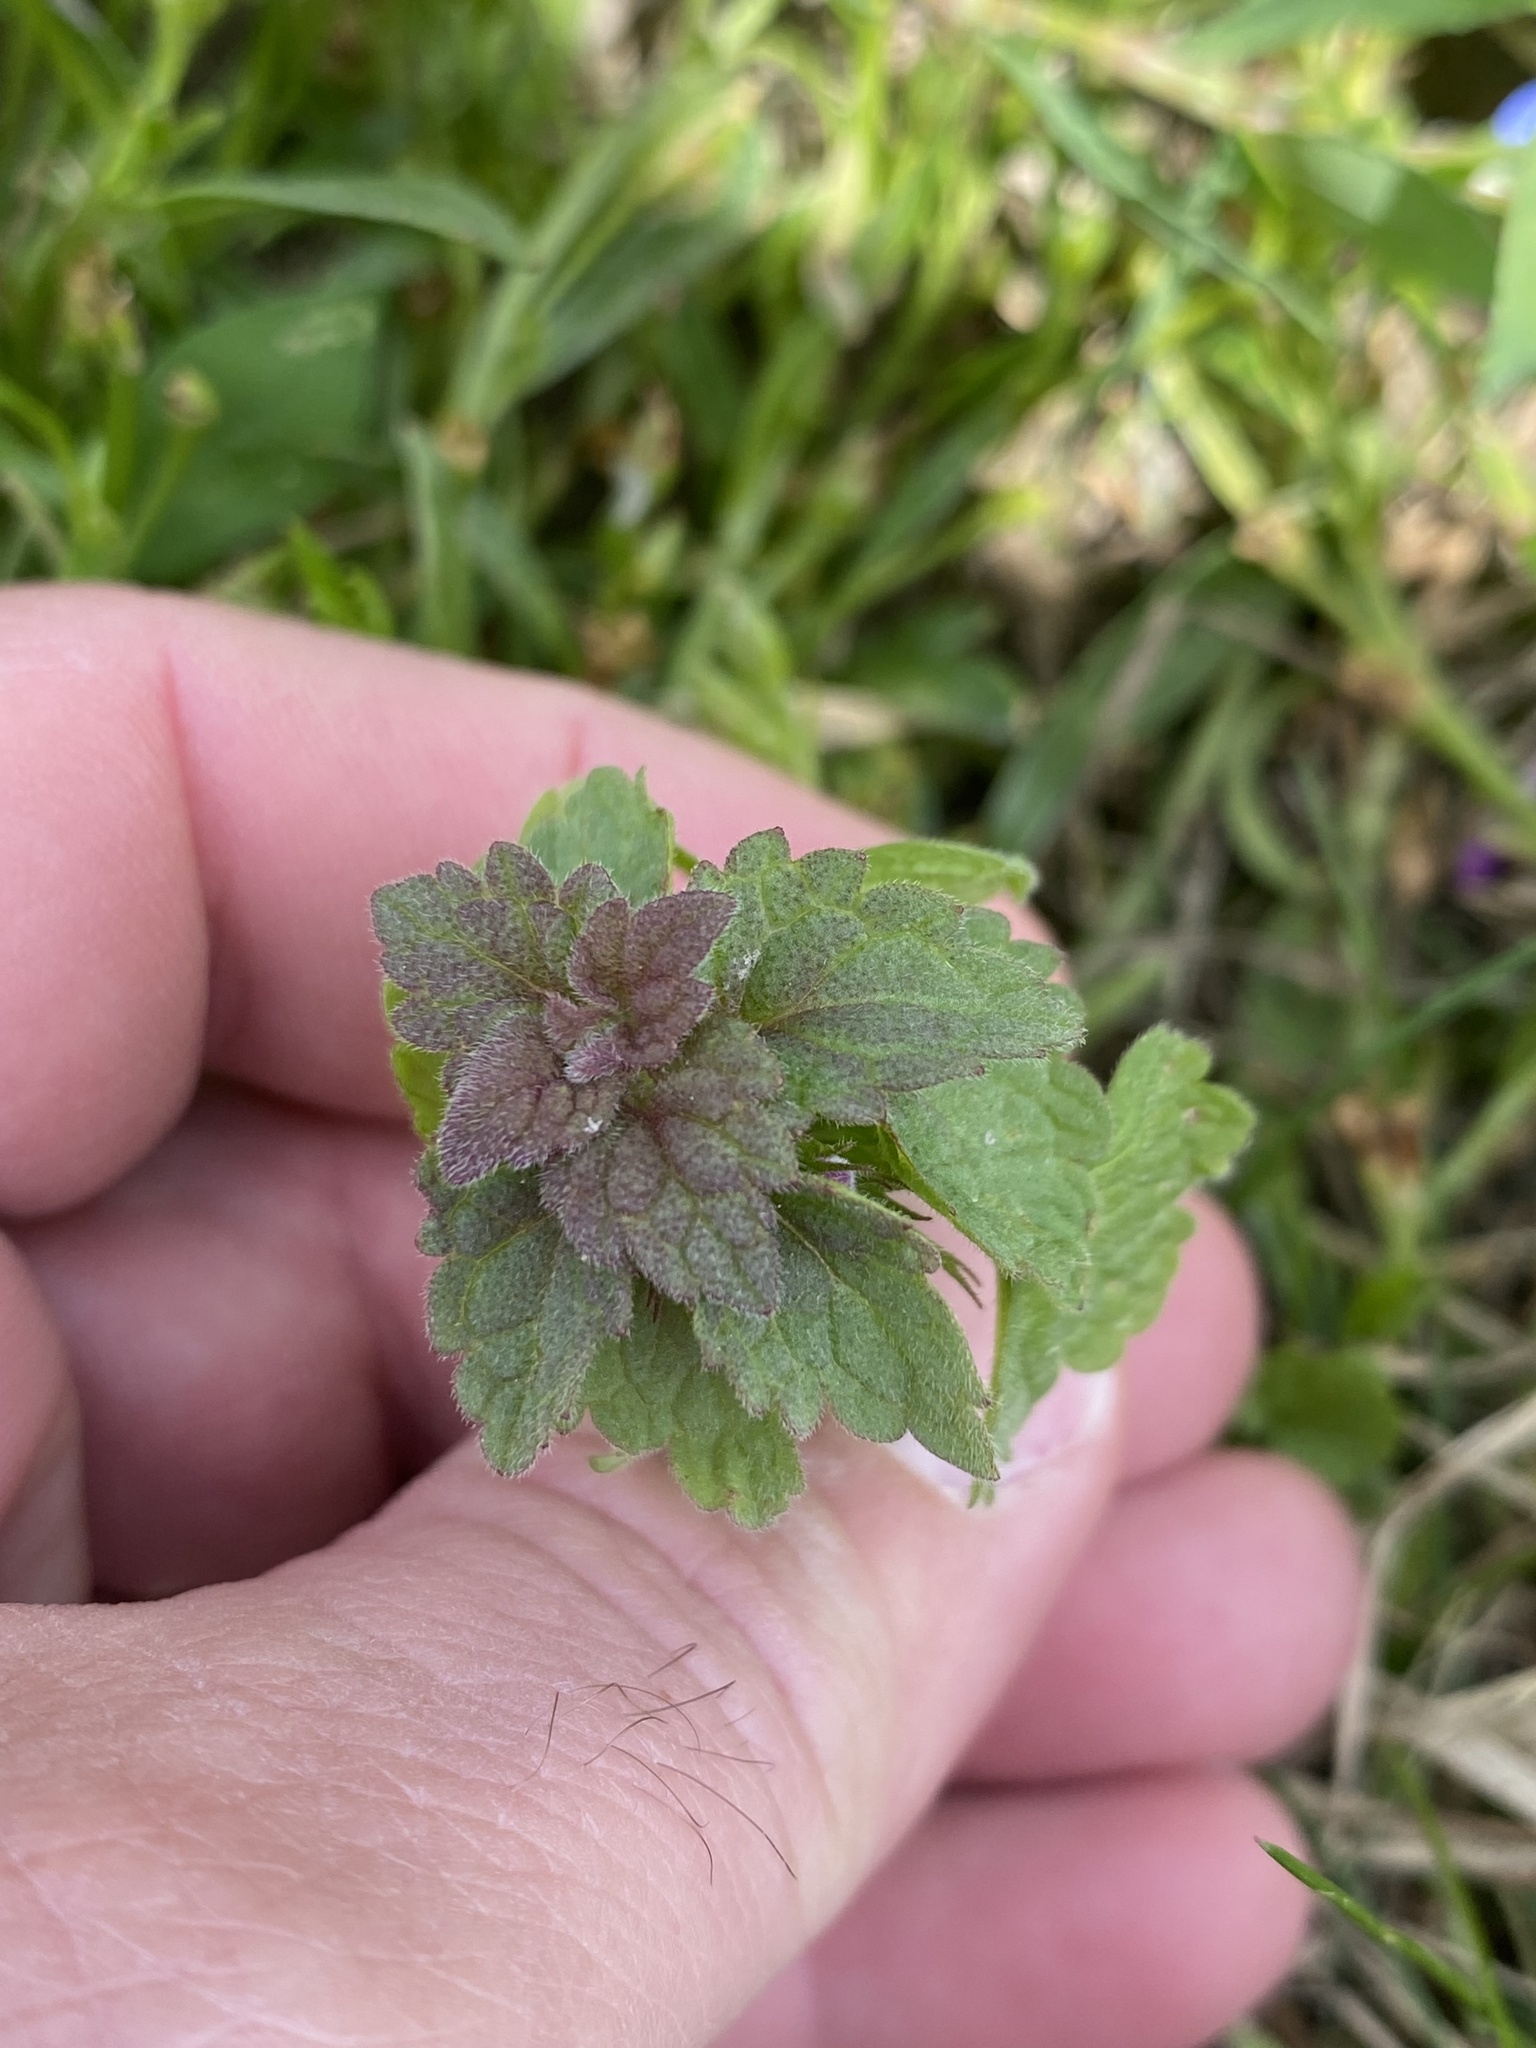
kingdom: Plantae
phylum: Tracheophyta
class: Magnoliopsida
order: Lamiales
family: Lamiaceae
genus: Lamium
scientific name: Lamium purpureum
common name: Red dead-nettle
